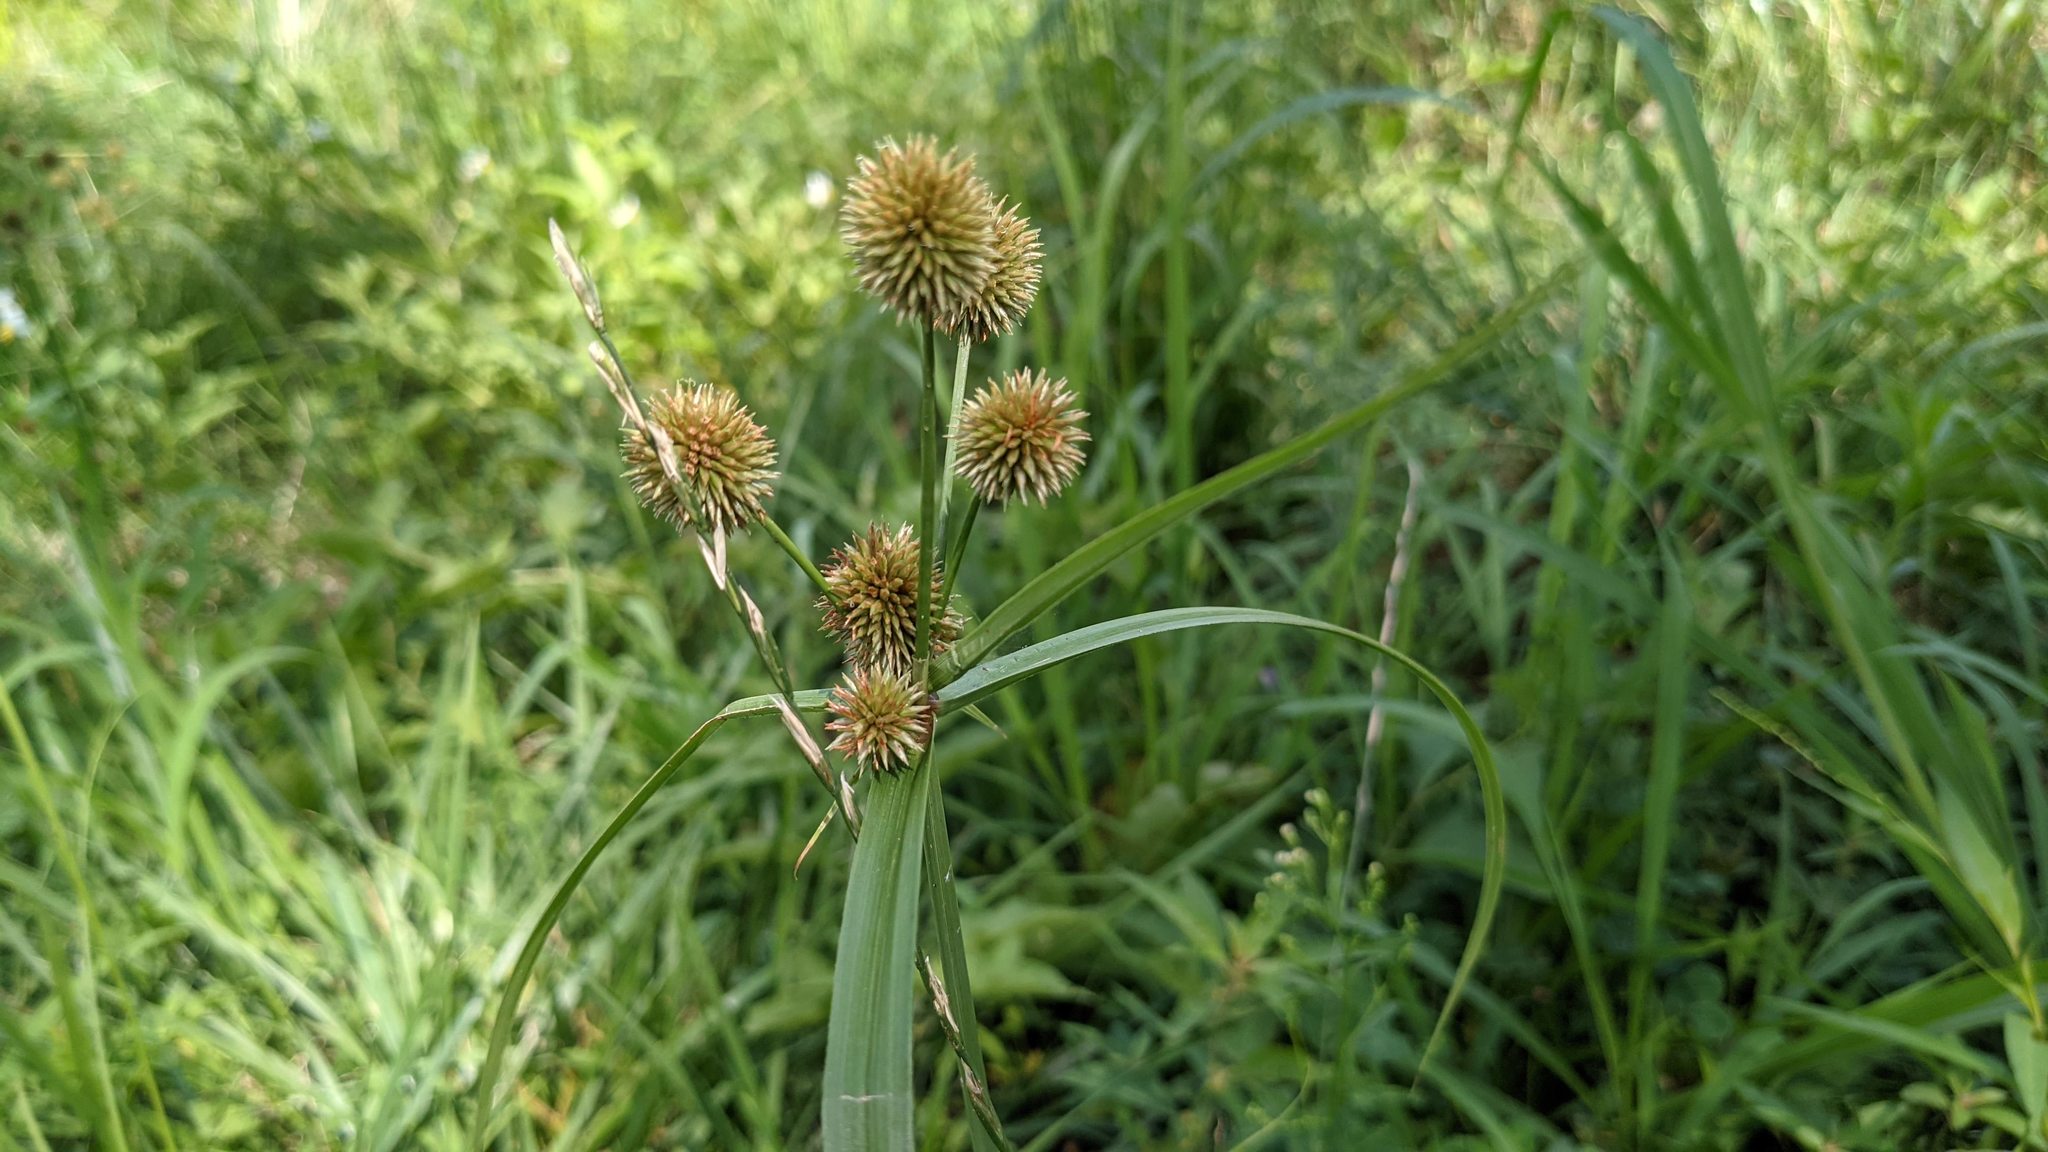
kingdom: Plantae
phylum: Tracheophyta
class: Liliopsida
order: Poales
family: Cyperaceae
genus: Cyperus
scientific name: Cyperus echinatus
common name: Teasel sedge
